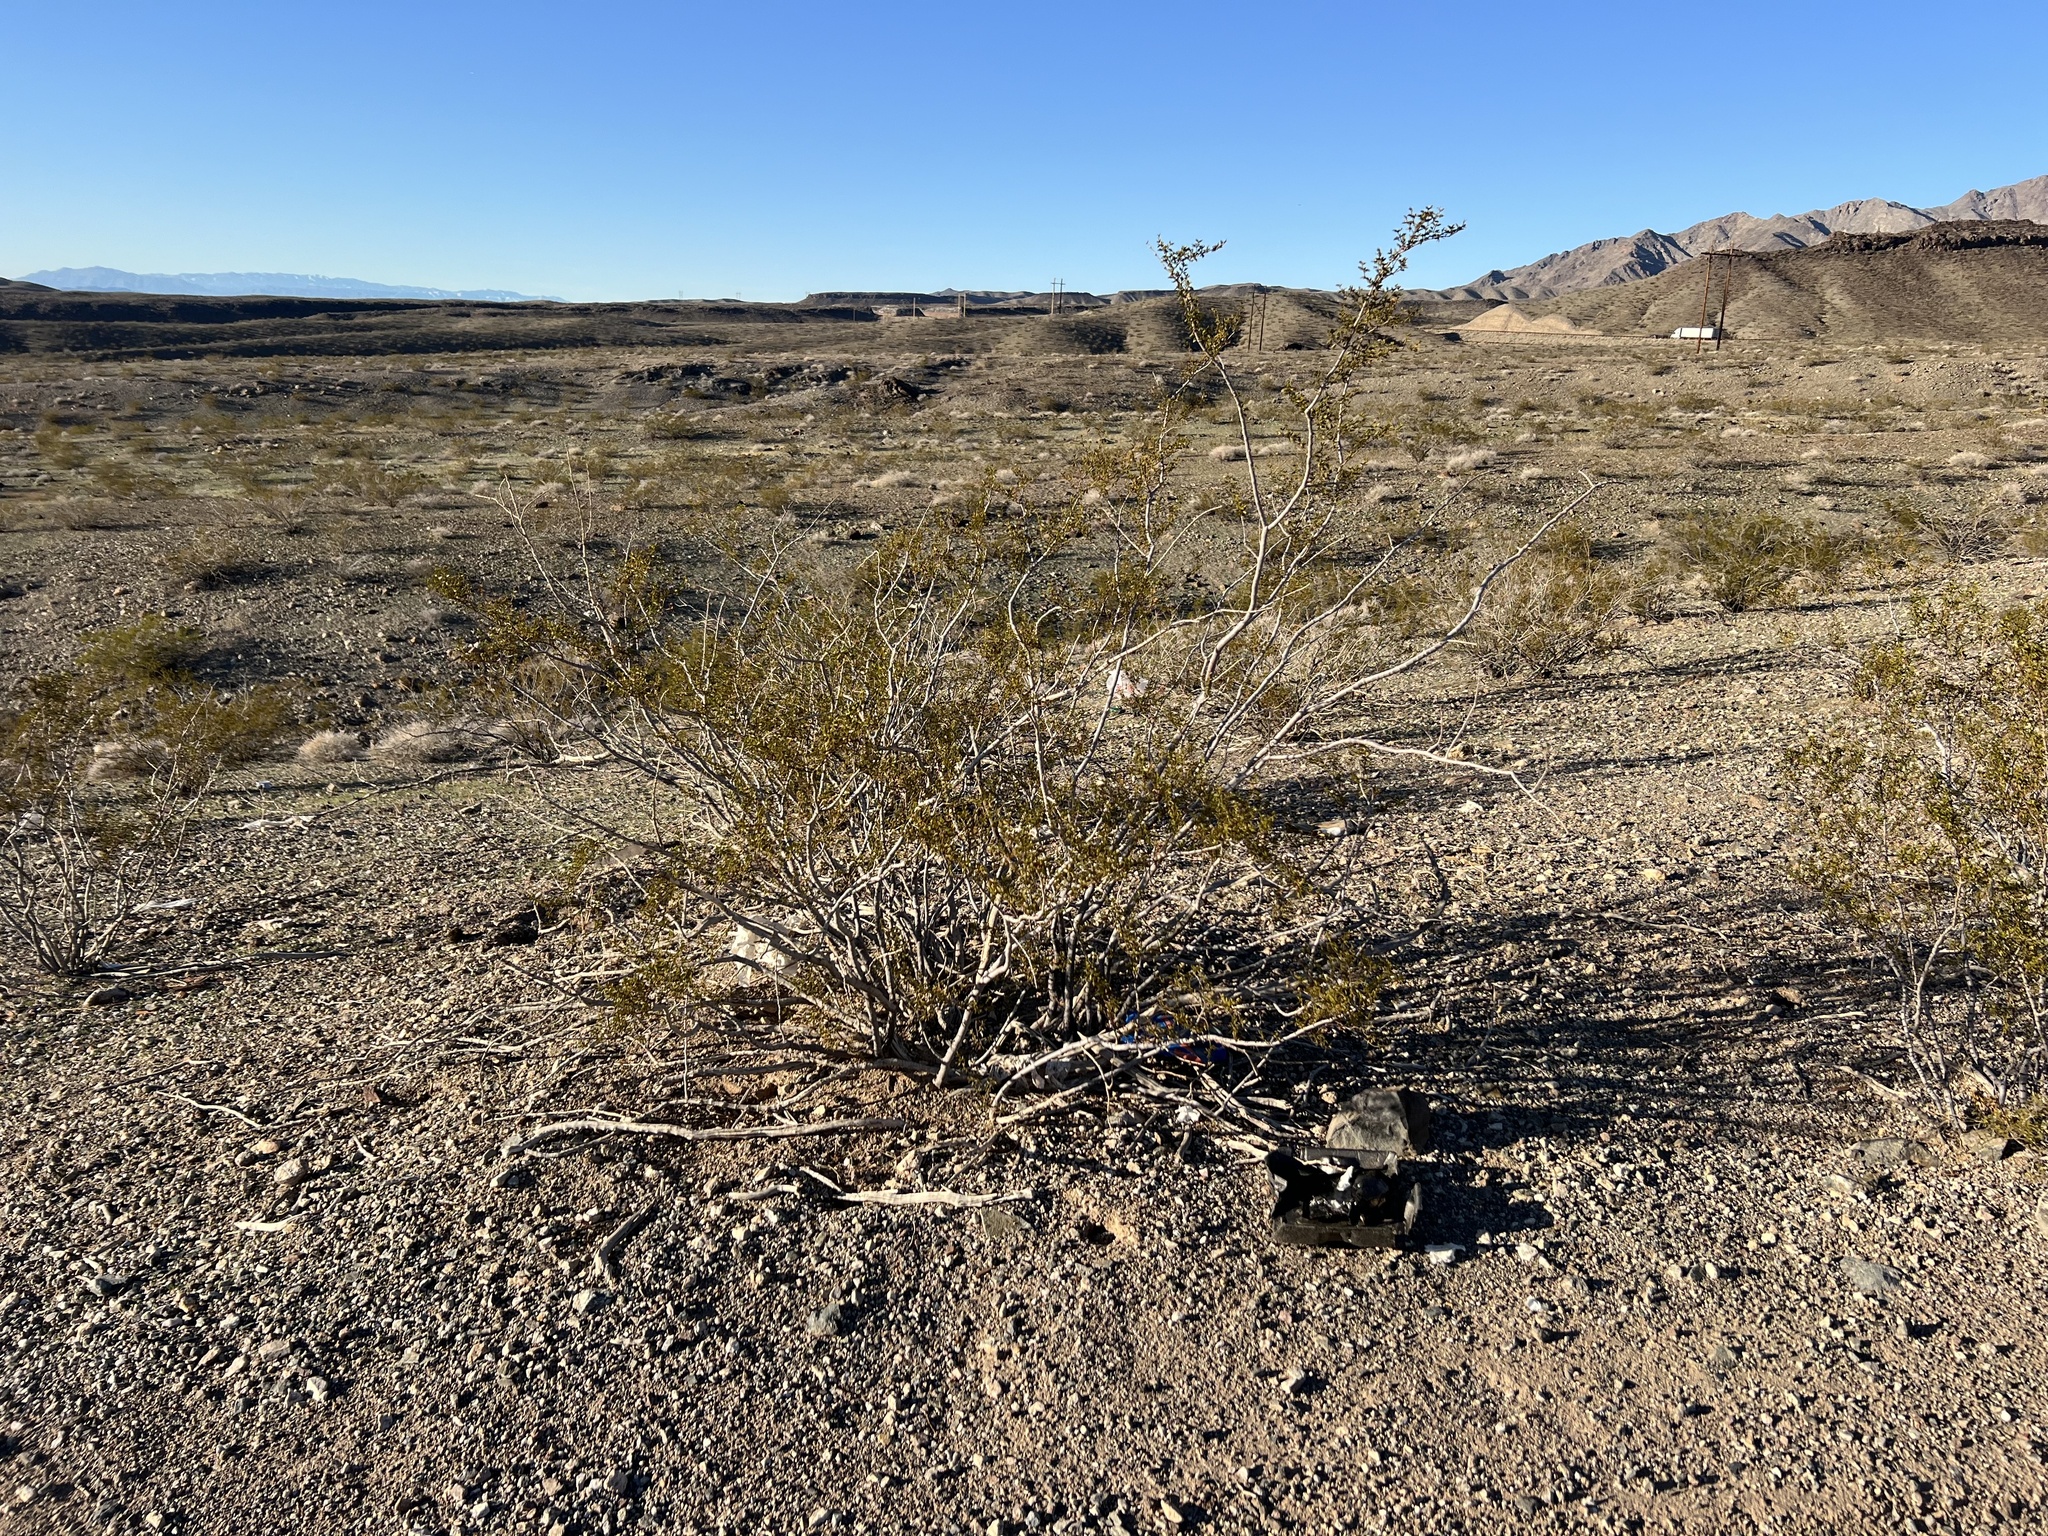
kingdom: Plantae
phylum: Tracheophyta
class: Magnoliopsida
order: Zygophyllales
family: Zygophyllaceae
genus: Larrea
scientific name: Larrea tridentata
